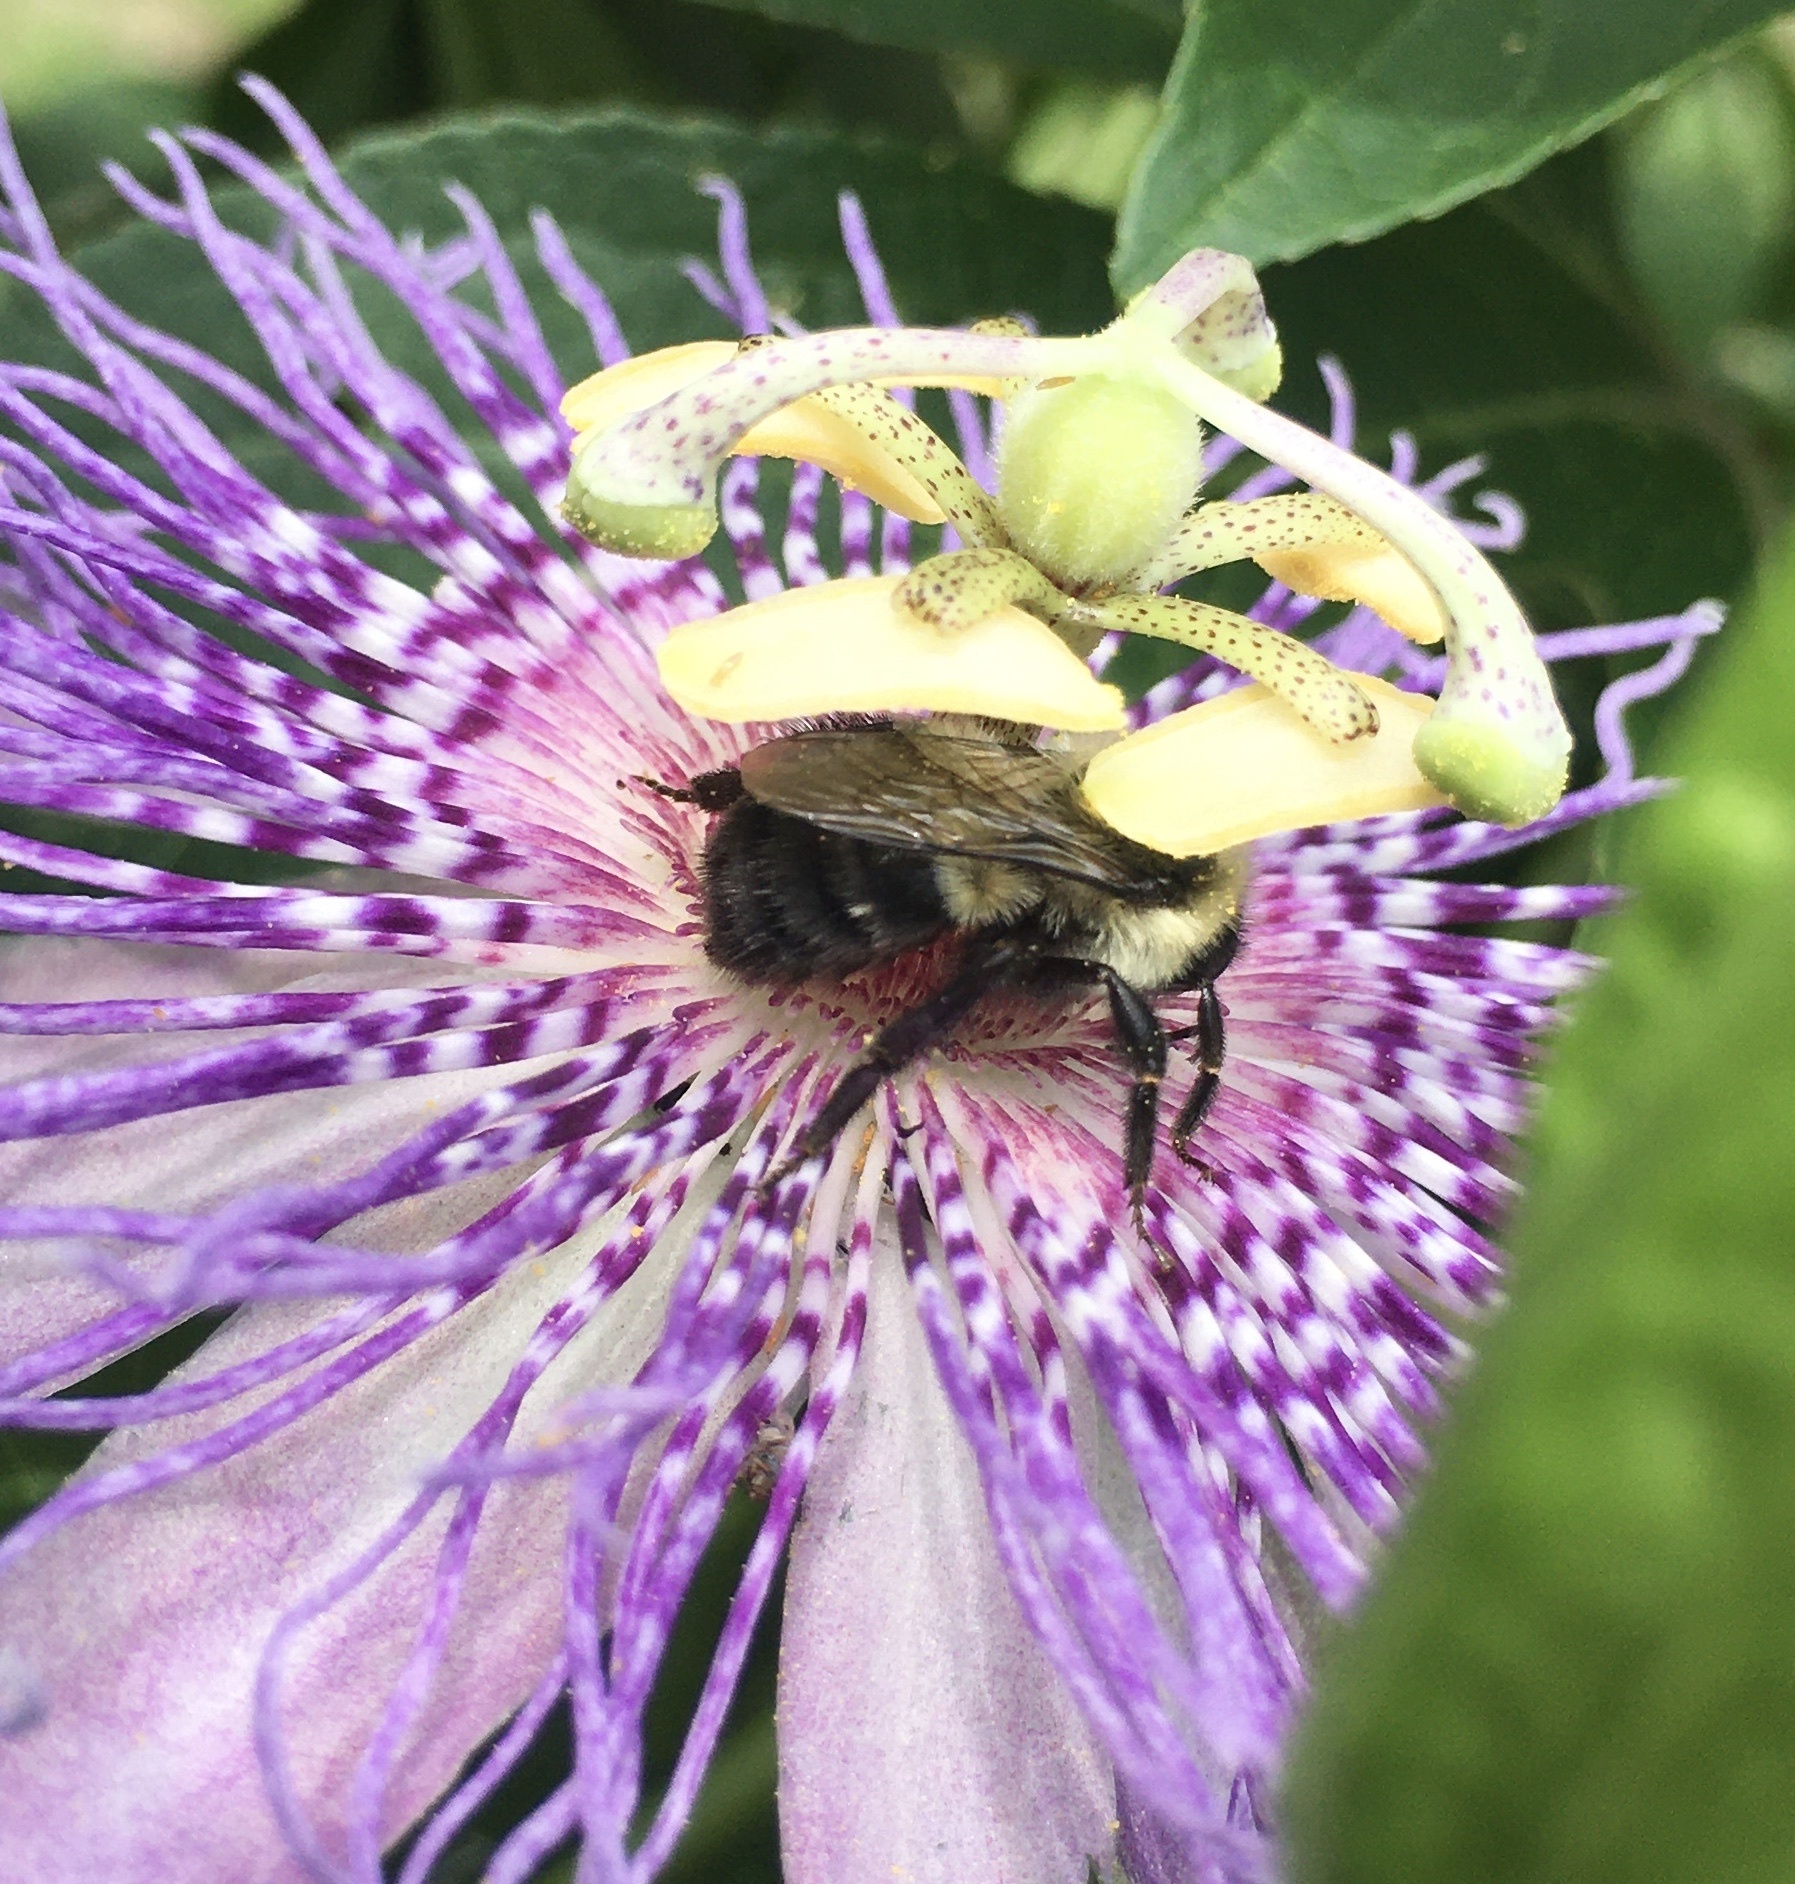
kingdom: Animalia
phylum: Arthropoda
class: Insecta
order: Hymenoptera
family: Apidae
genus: Bombus
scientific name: Bombus impatiens
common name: Common eastern bumble bee
